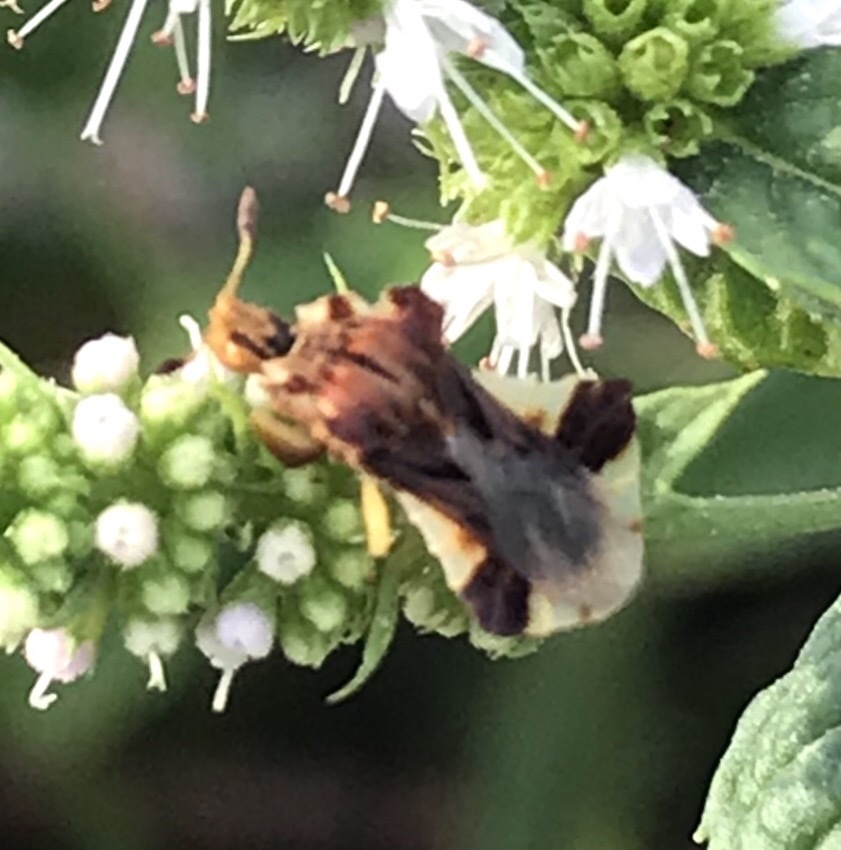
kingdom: Animalia
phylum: Arthropoda
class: Insecta
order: Hemiptera
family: Reduviidae
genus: Phymata
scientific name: Phymata fasciata
